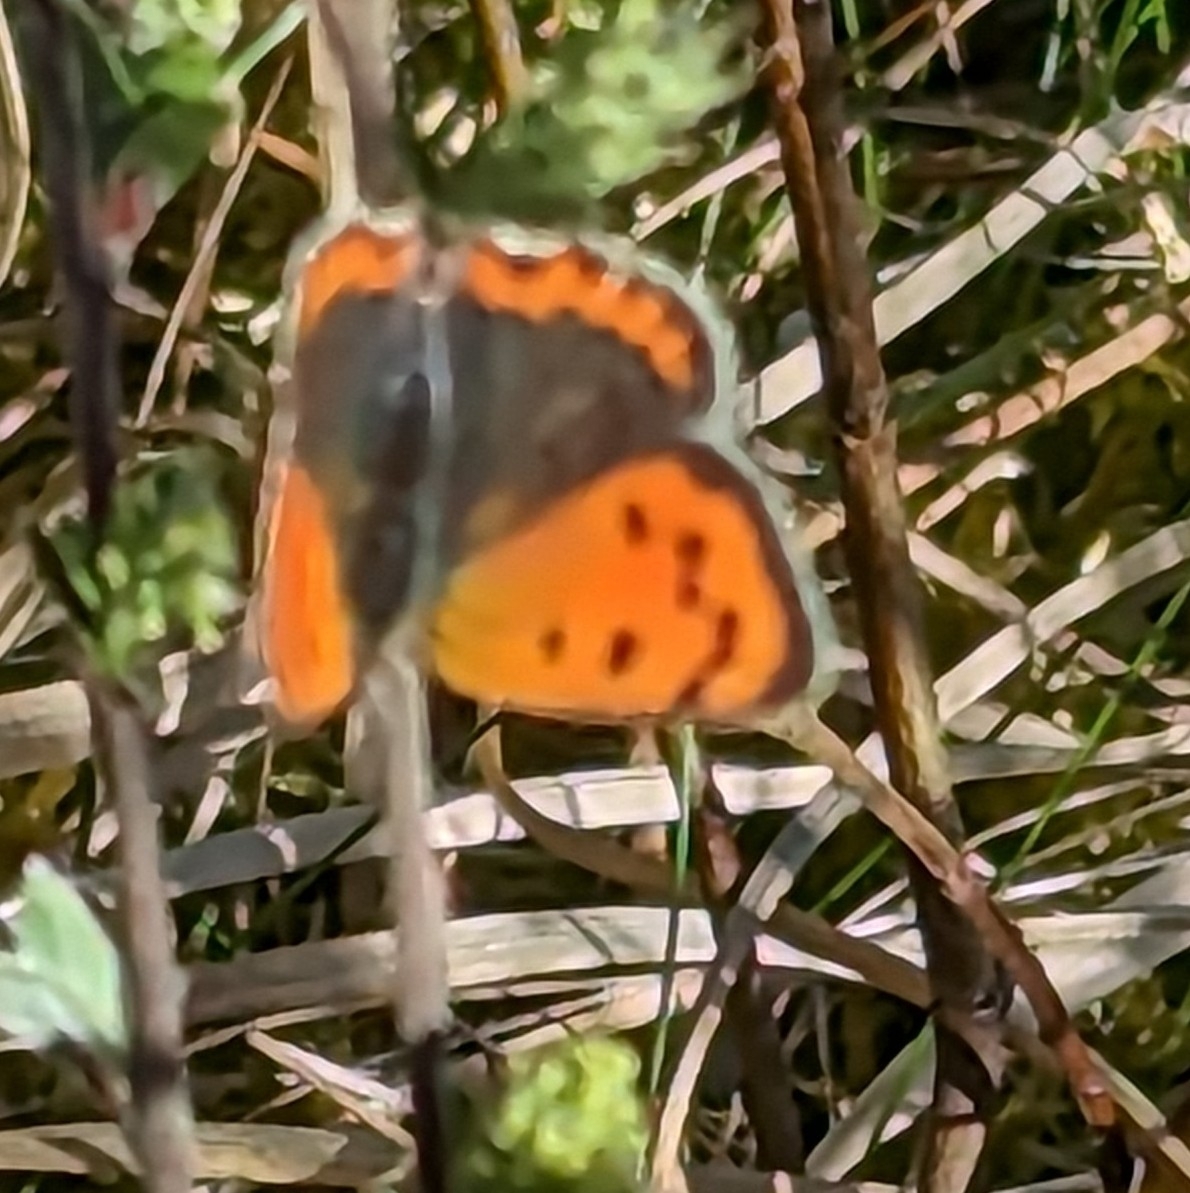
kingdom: Animalia
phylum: Arthropoda
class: Insecta
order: Lepidoptera
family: Lycaenidae
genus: Lycaena
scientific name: Lycaena phlaeas
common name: Small copper
